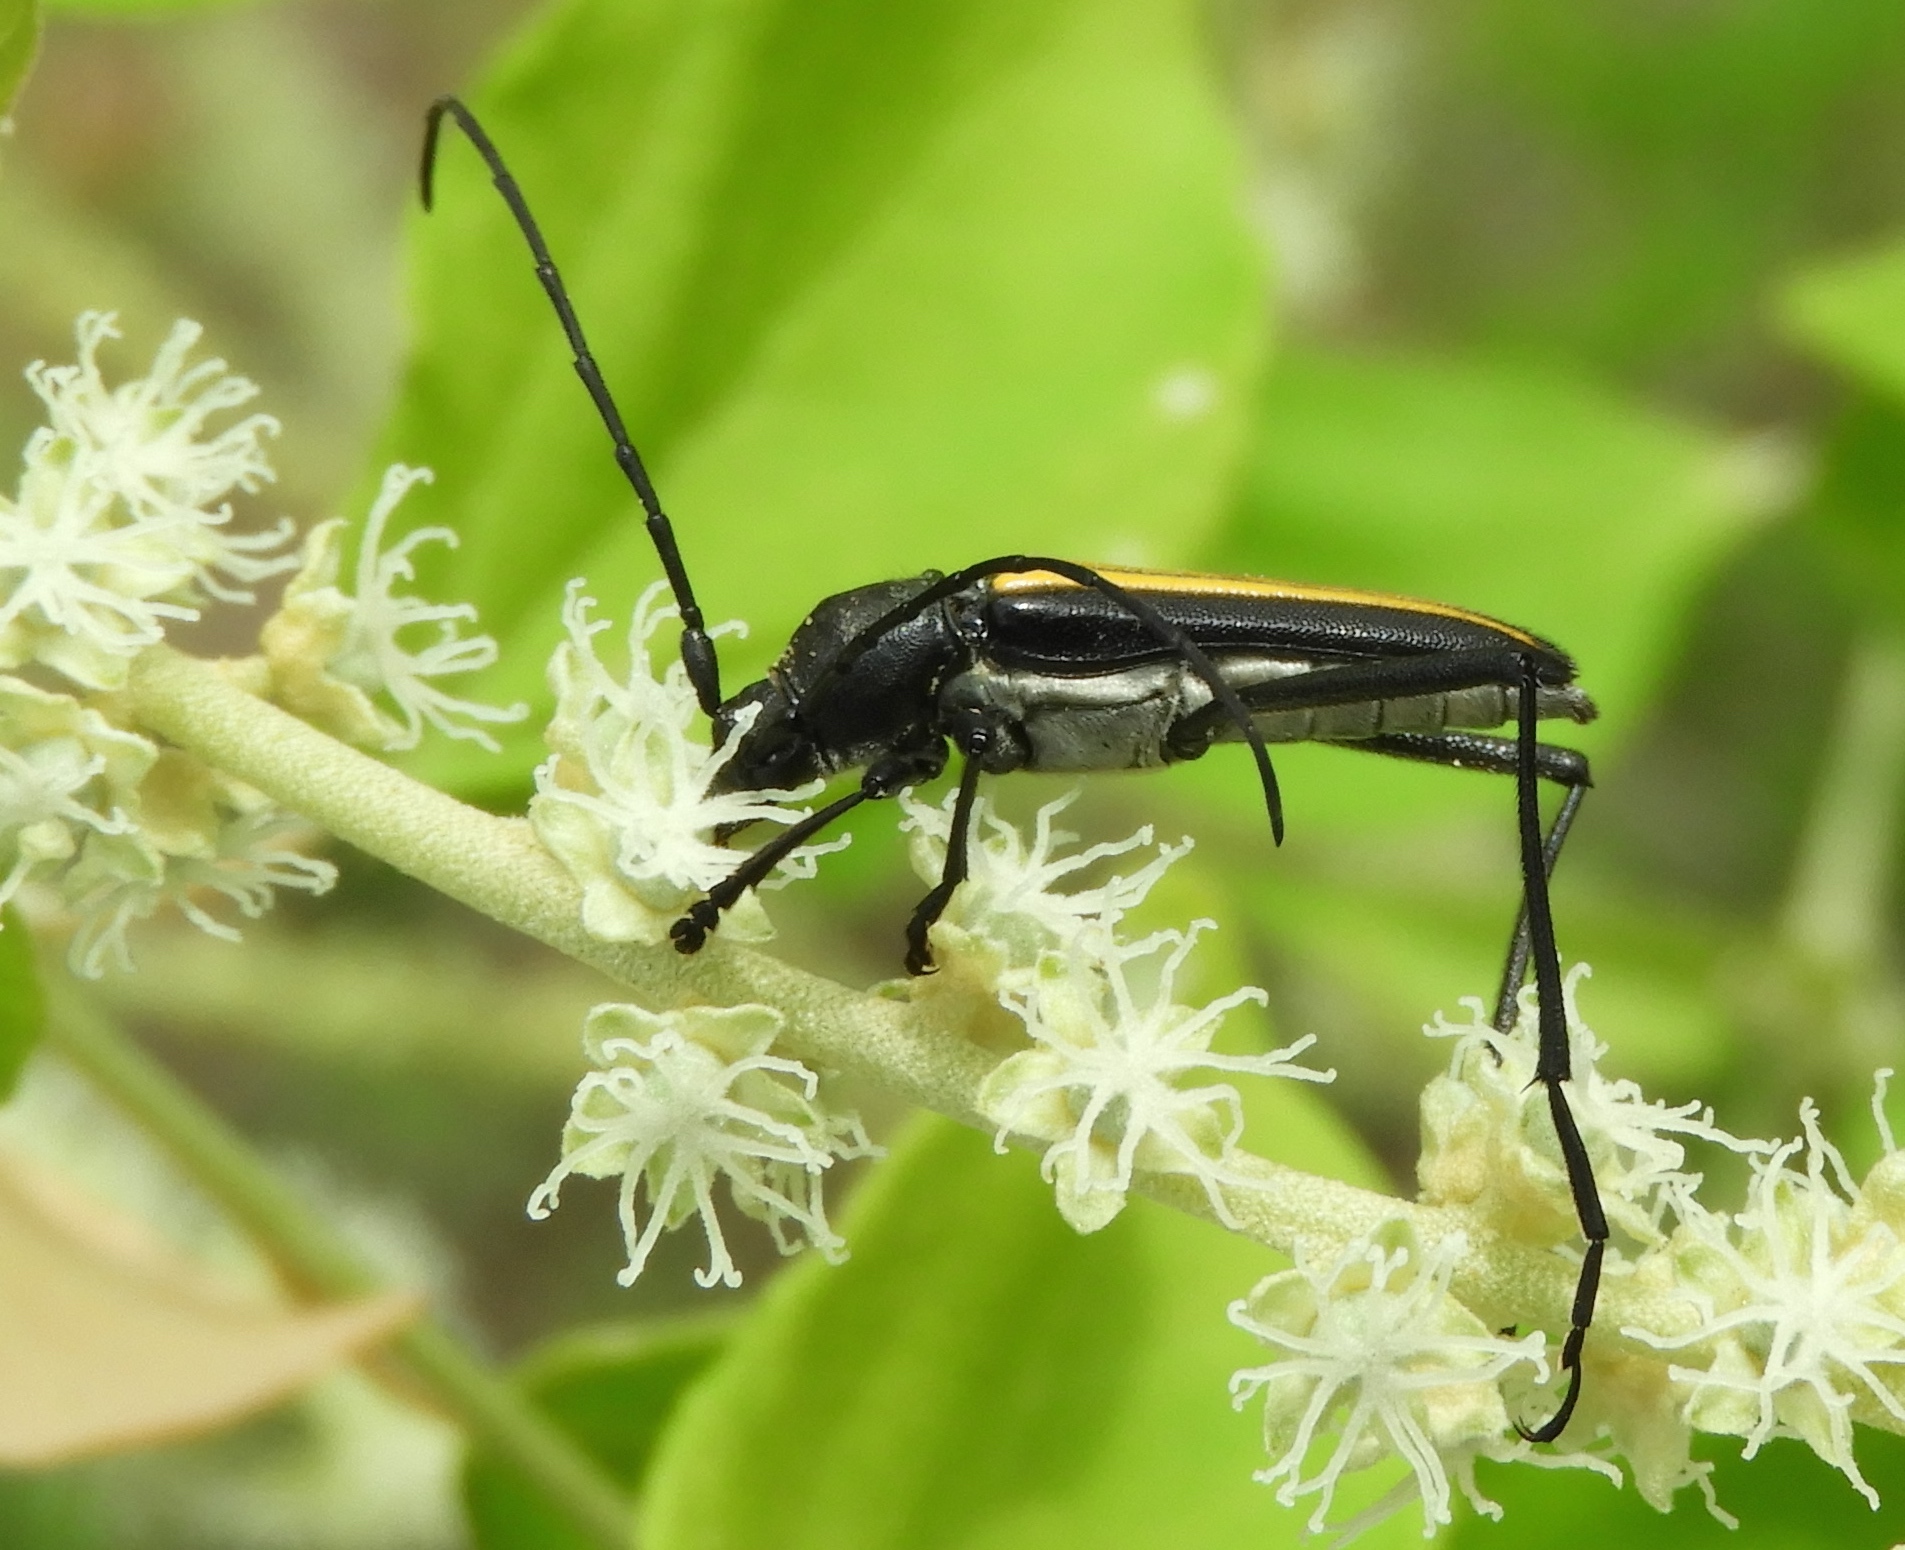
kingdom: Animalia
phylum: Arthropoda
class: Insecta
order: Coleoptera
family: Cerambycidae
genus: Lophalia
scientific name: Lophalia
